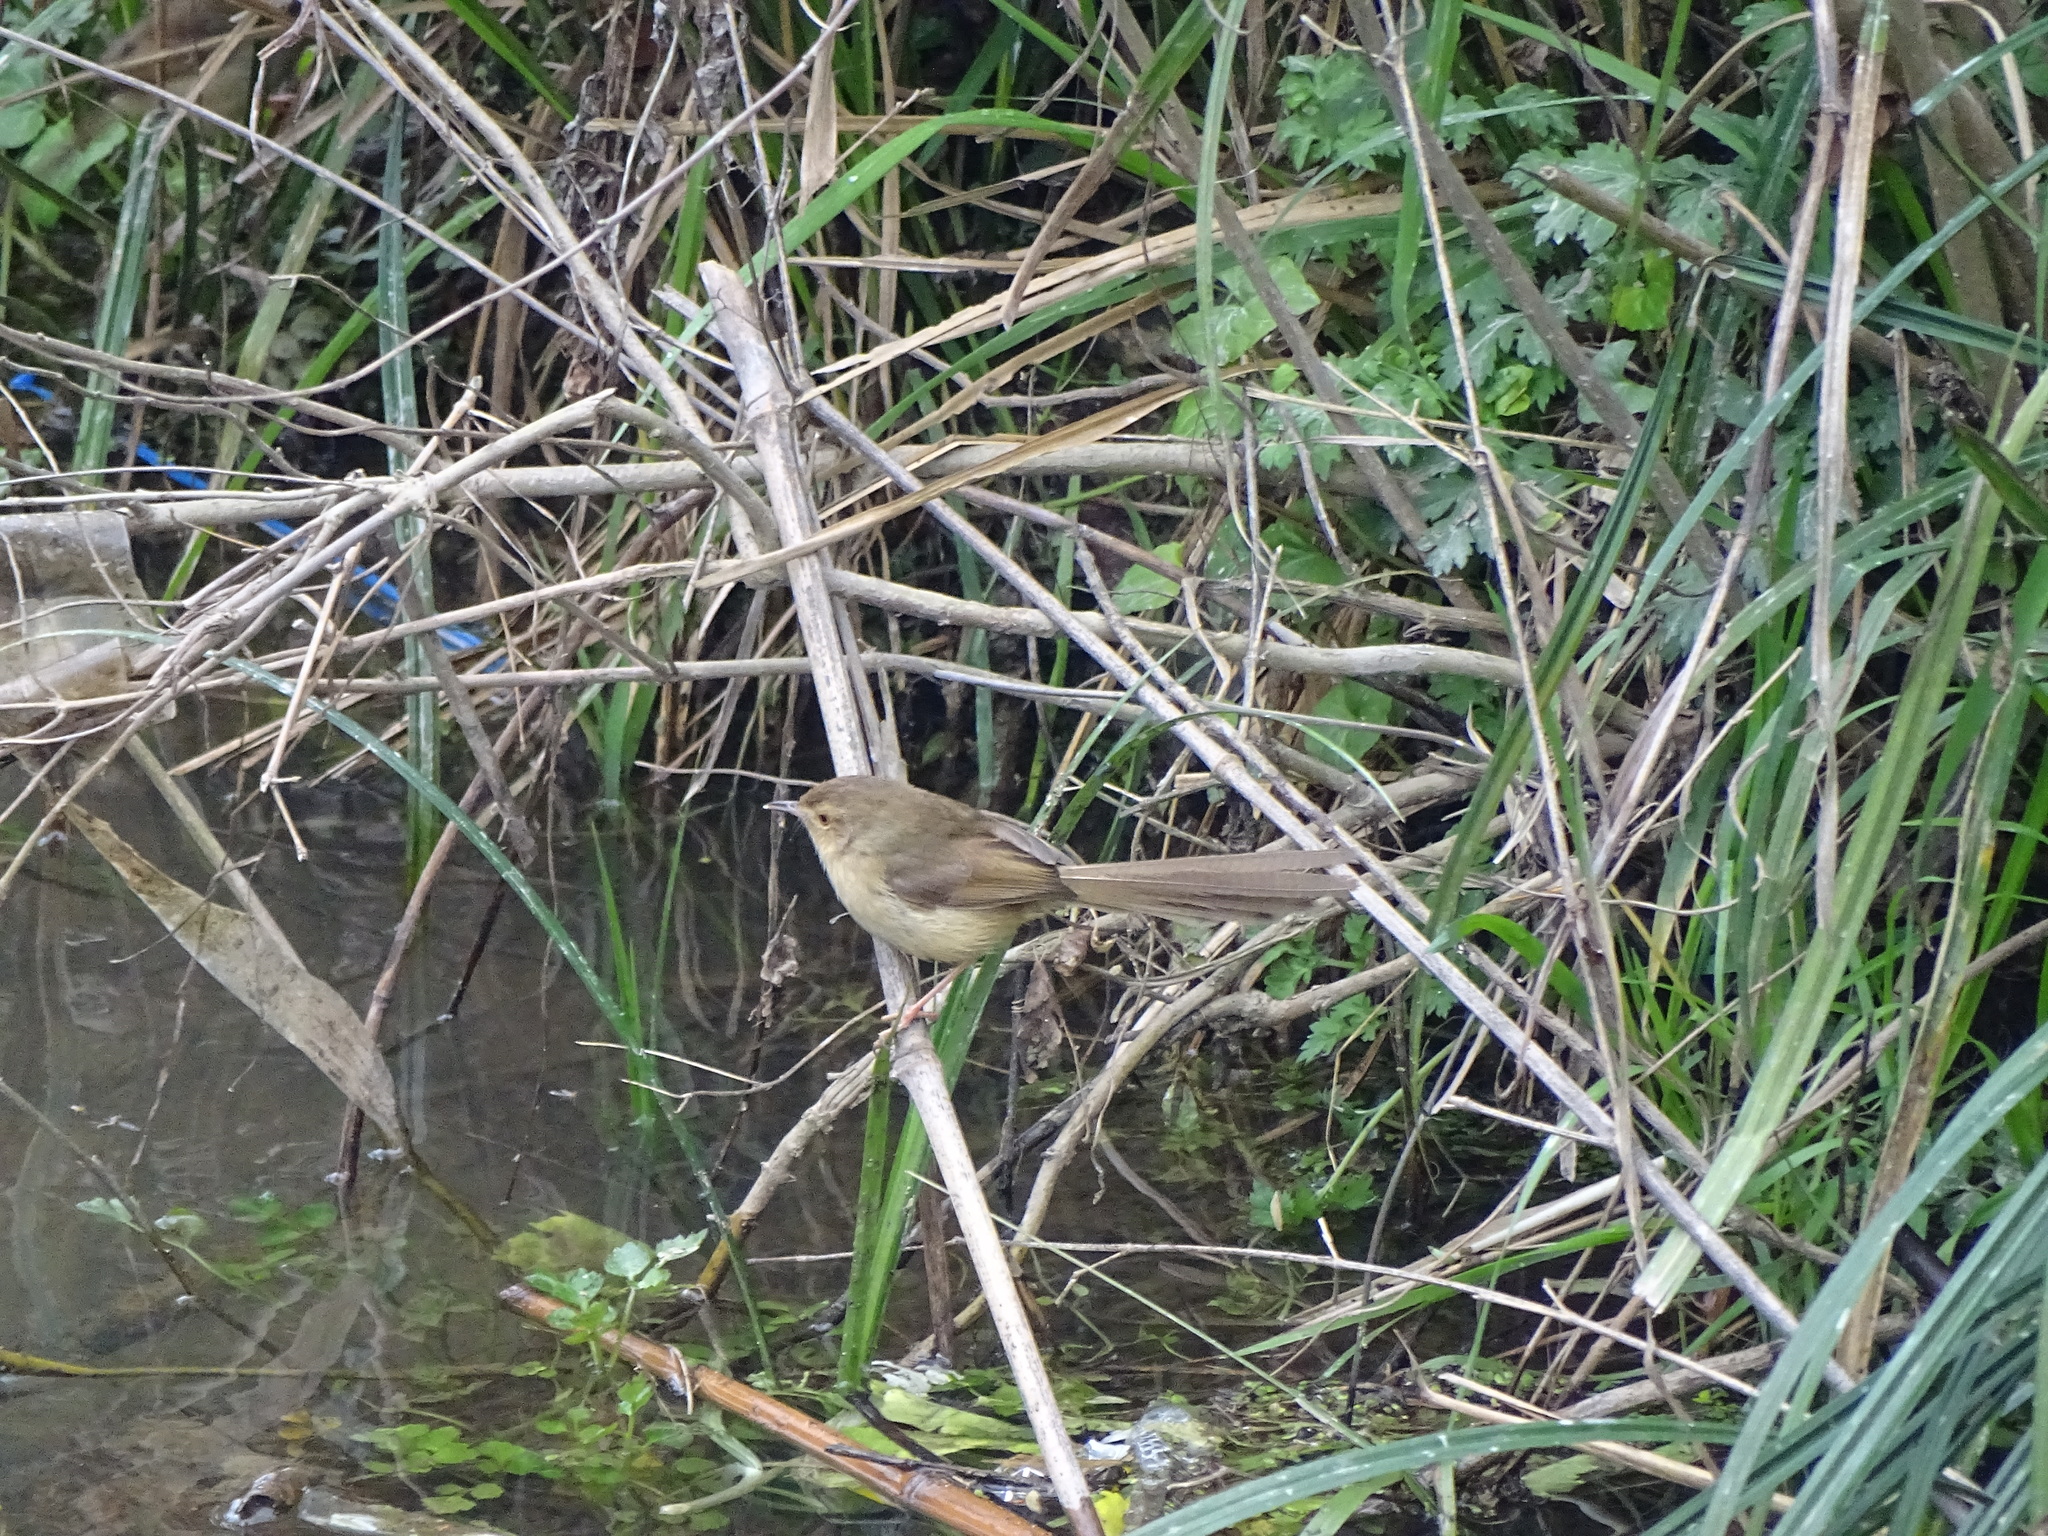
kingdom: Animalia
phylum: Chordata
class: Aves
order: Passeriformes
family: Cisticolidae
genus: Prinia
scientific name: Prinia inornata
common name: Plain prinia
